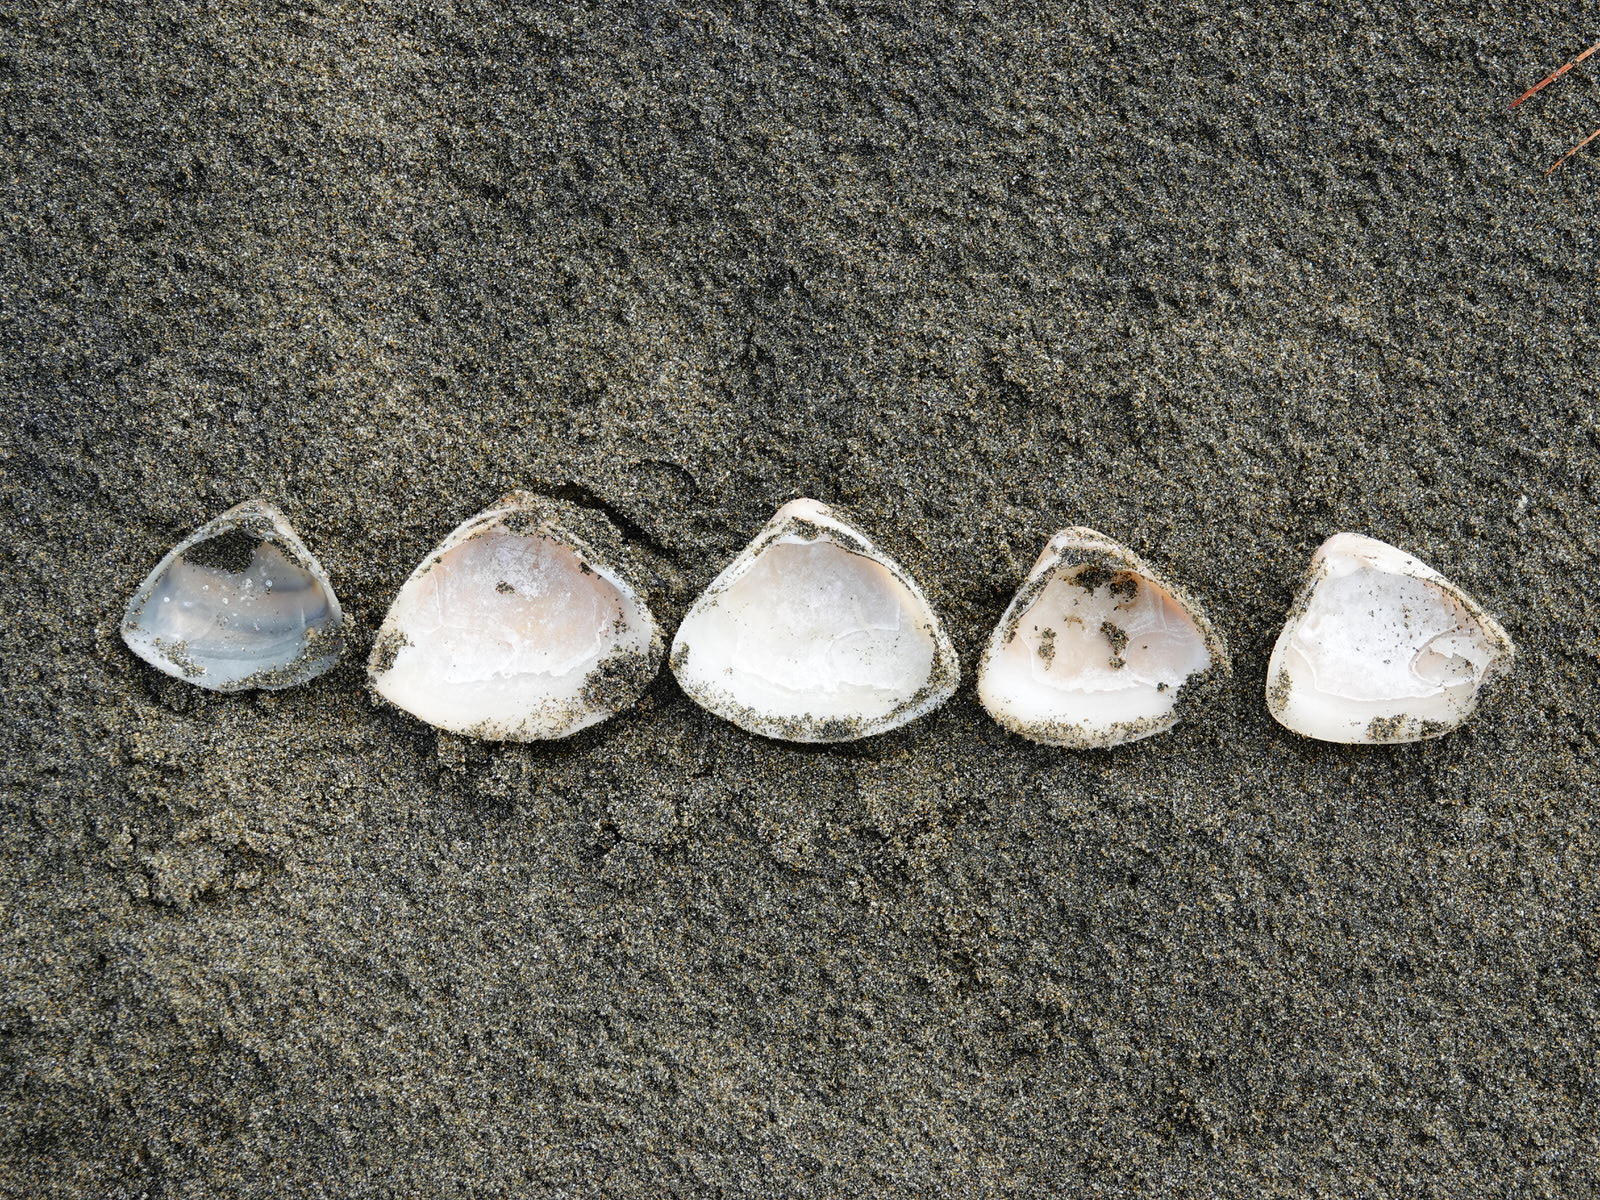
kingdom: Animalia
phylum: Mollusca
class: Bivalvia
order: Venerida
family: Mactridae
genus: Crassula
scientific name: Crassula aequilatera
